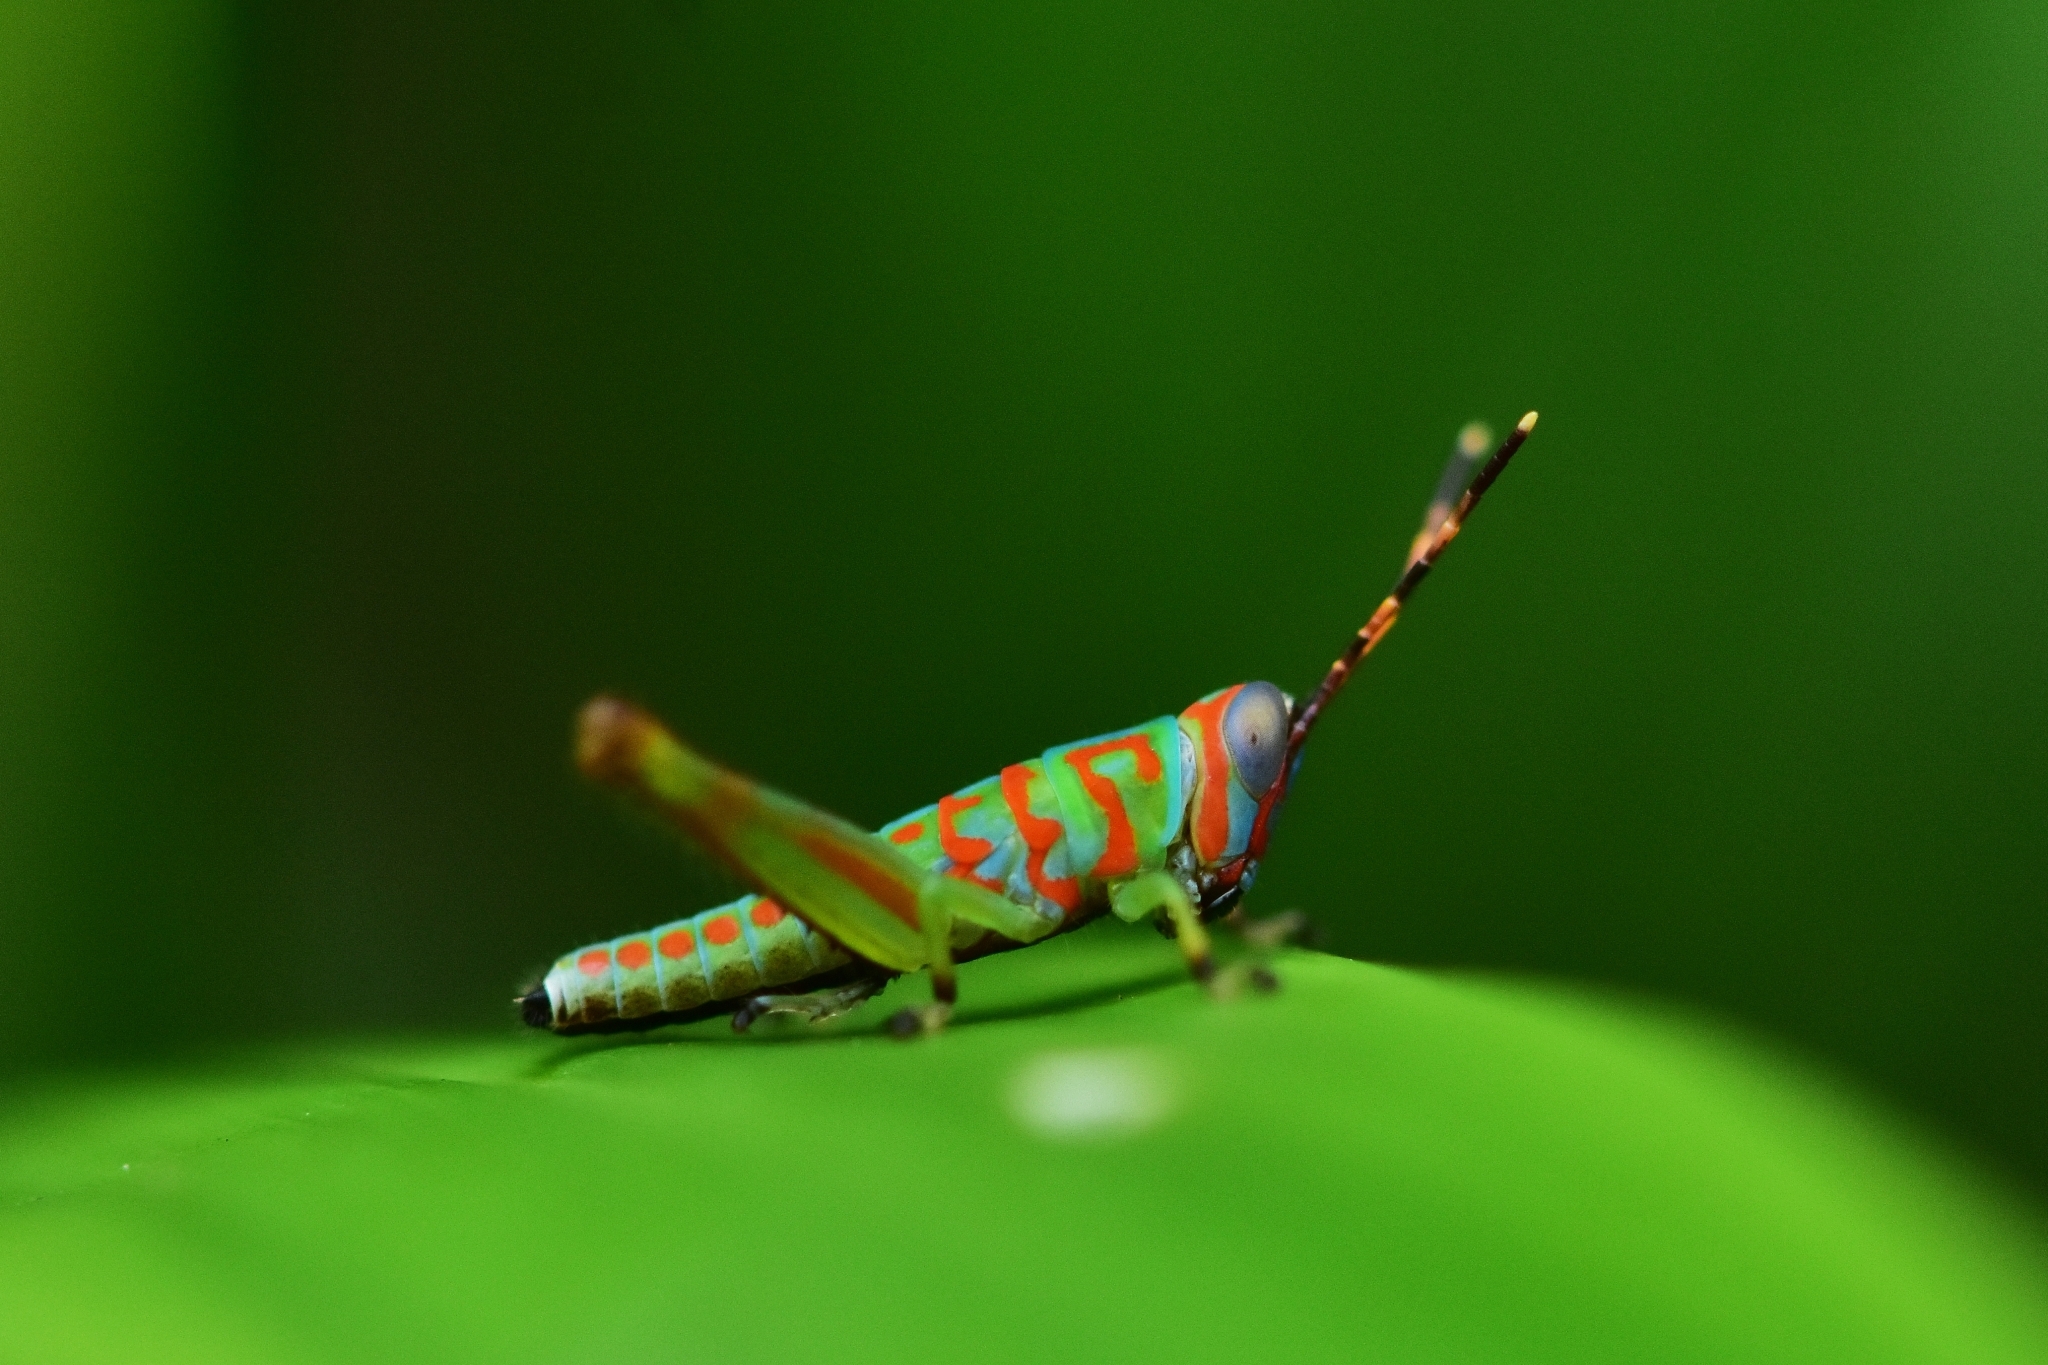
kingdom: Animalia
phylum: Arthropoda
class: Insecta
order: Orthoptera
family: Acrididae
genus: Pirithoicus
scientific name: Pirithoicus ophthalmicus
